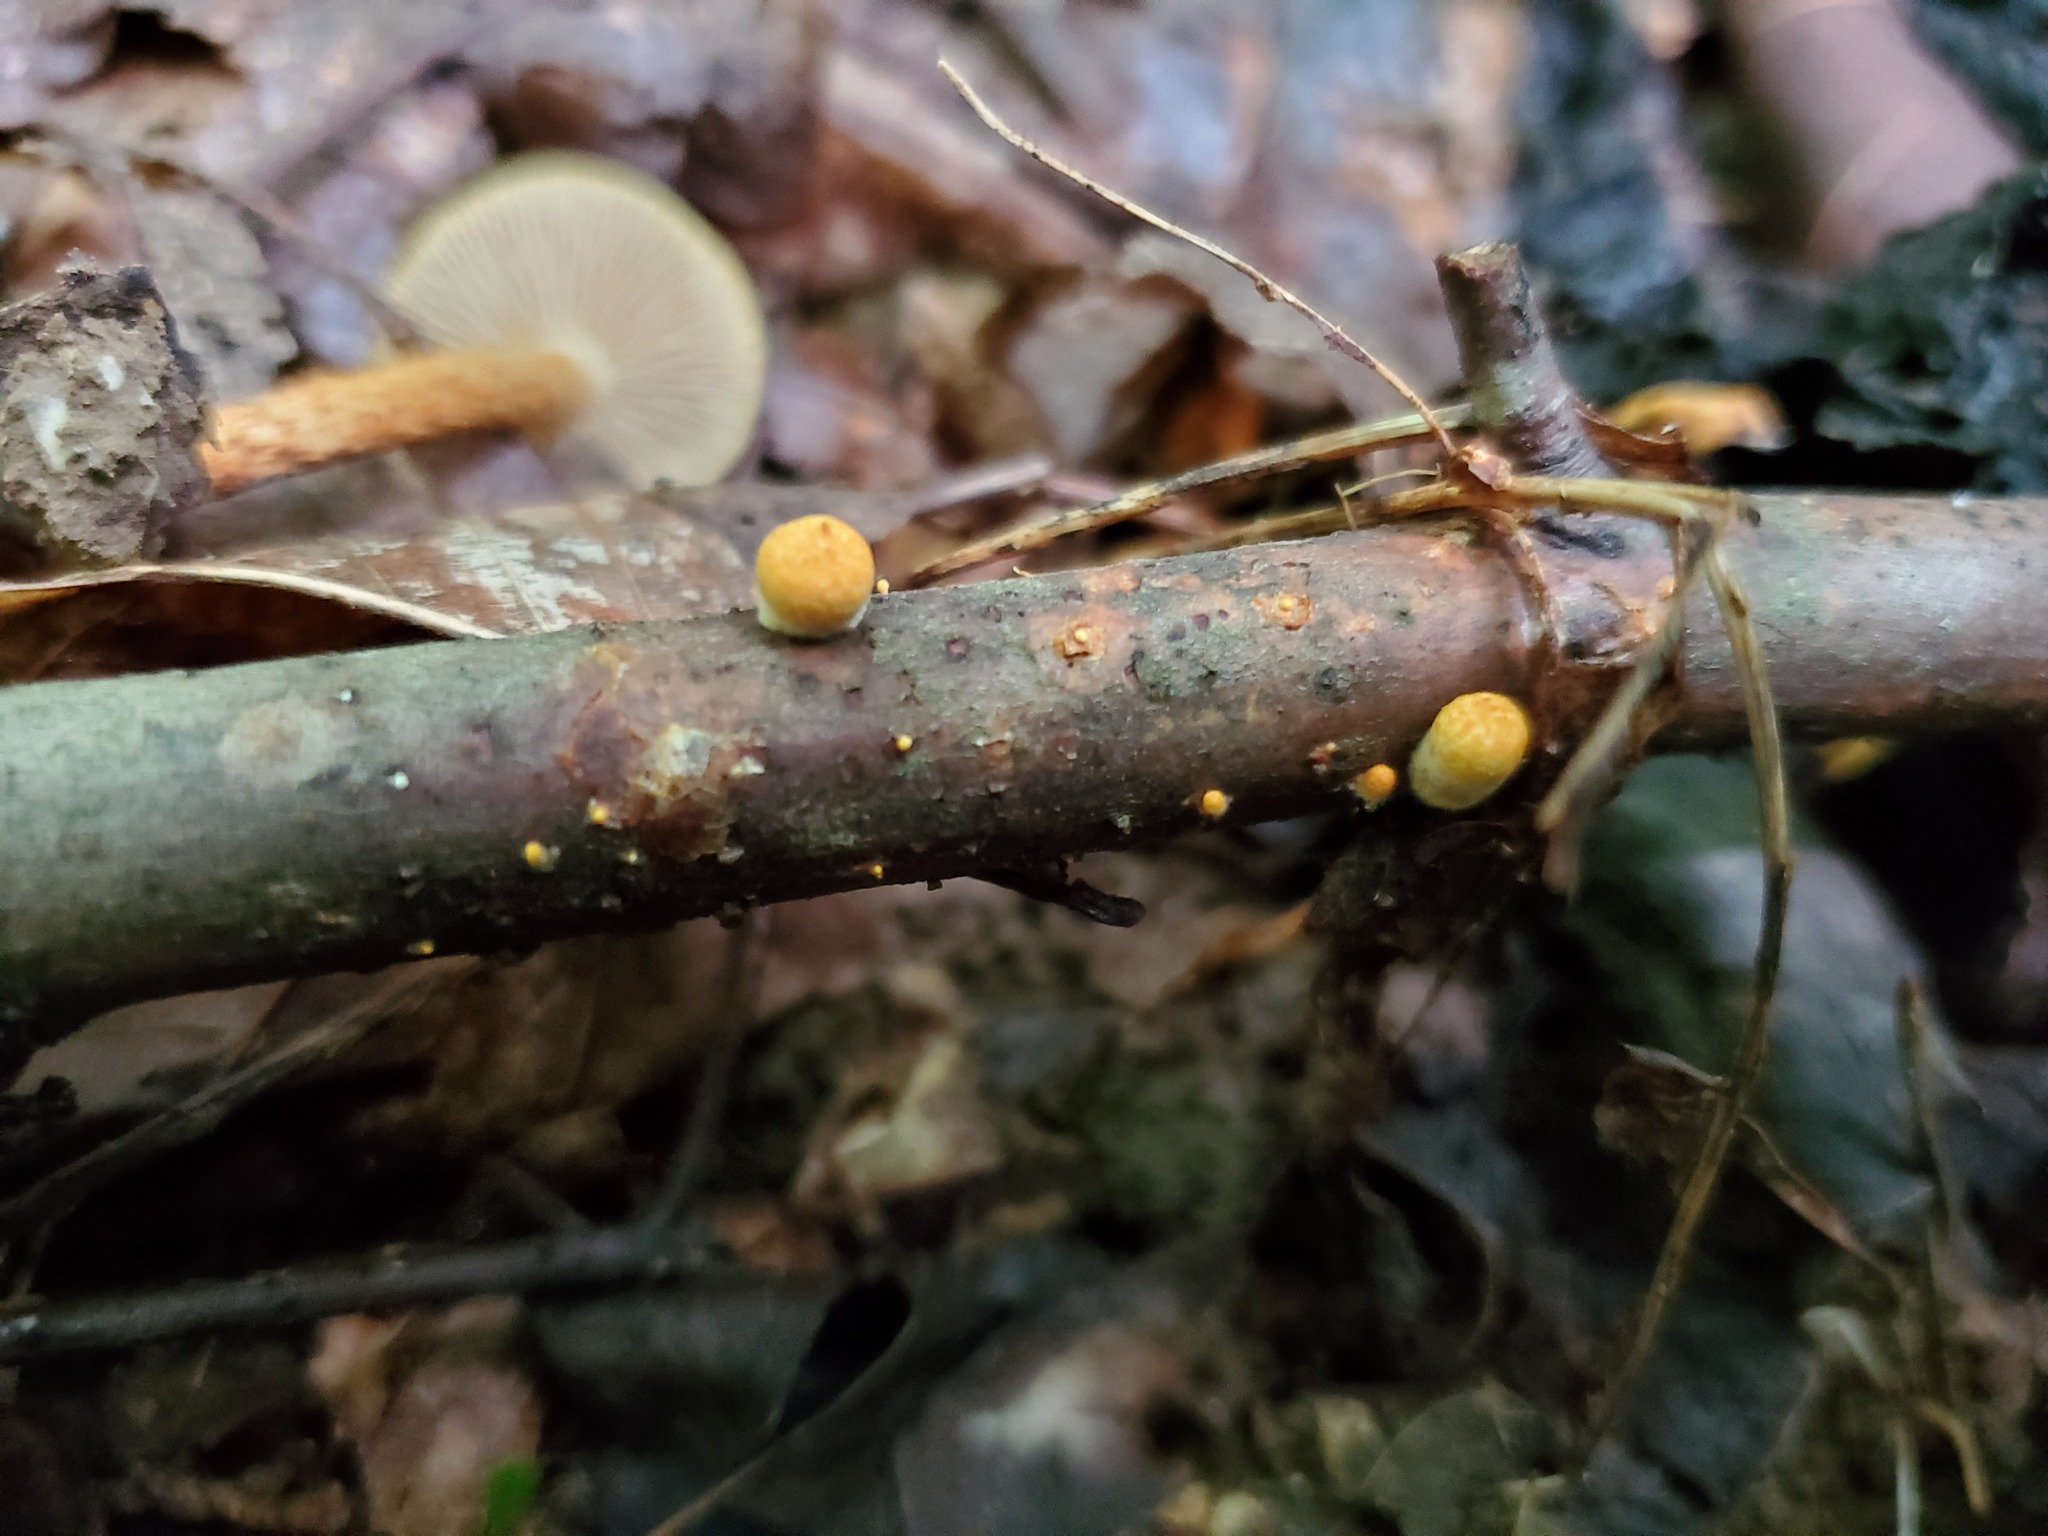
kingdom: Fungi
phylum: Basidiomycota
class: Agaricomycetes
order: Agaricales
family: Nidulariaceae
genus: Crucibulum
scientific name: Crucibulum parvulum
